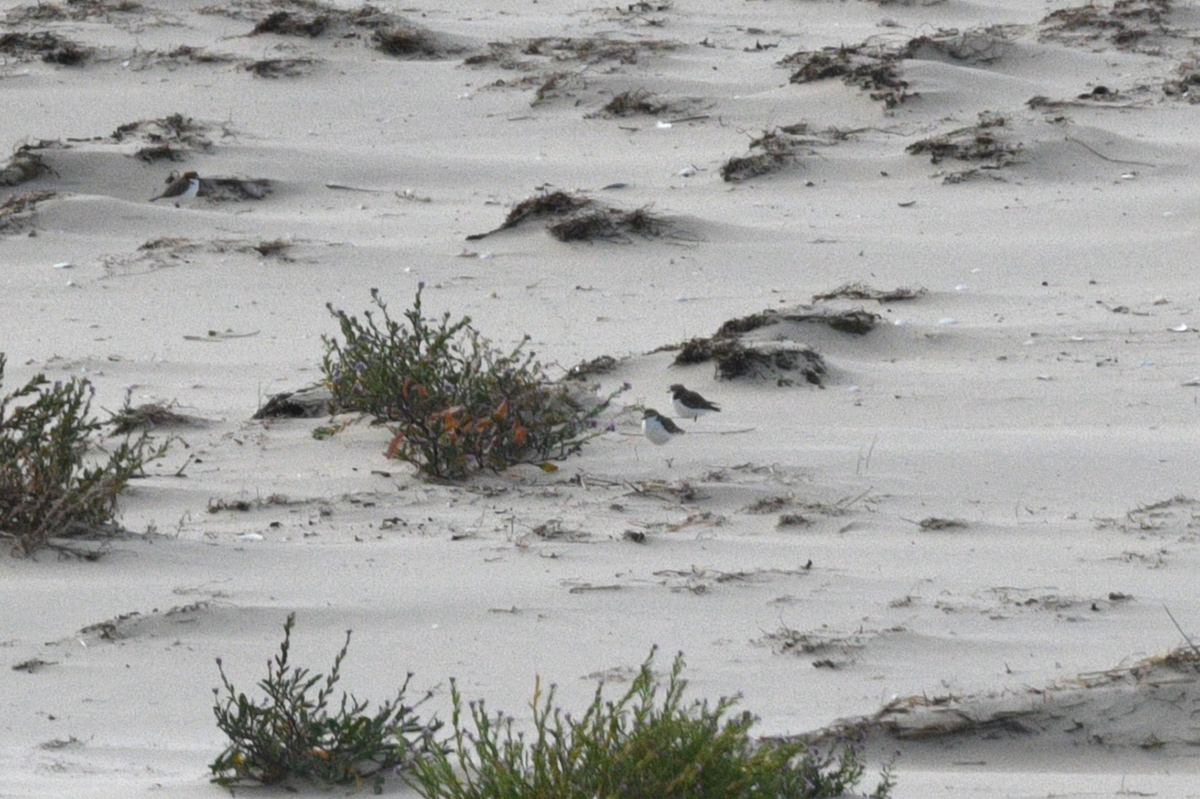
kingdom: Animalia
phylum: Chordata
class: Aves
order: Charadriiformes
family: Charadriidae
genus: Anarhynchus
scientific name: Anarhynchus
